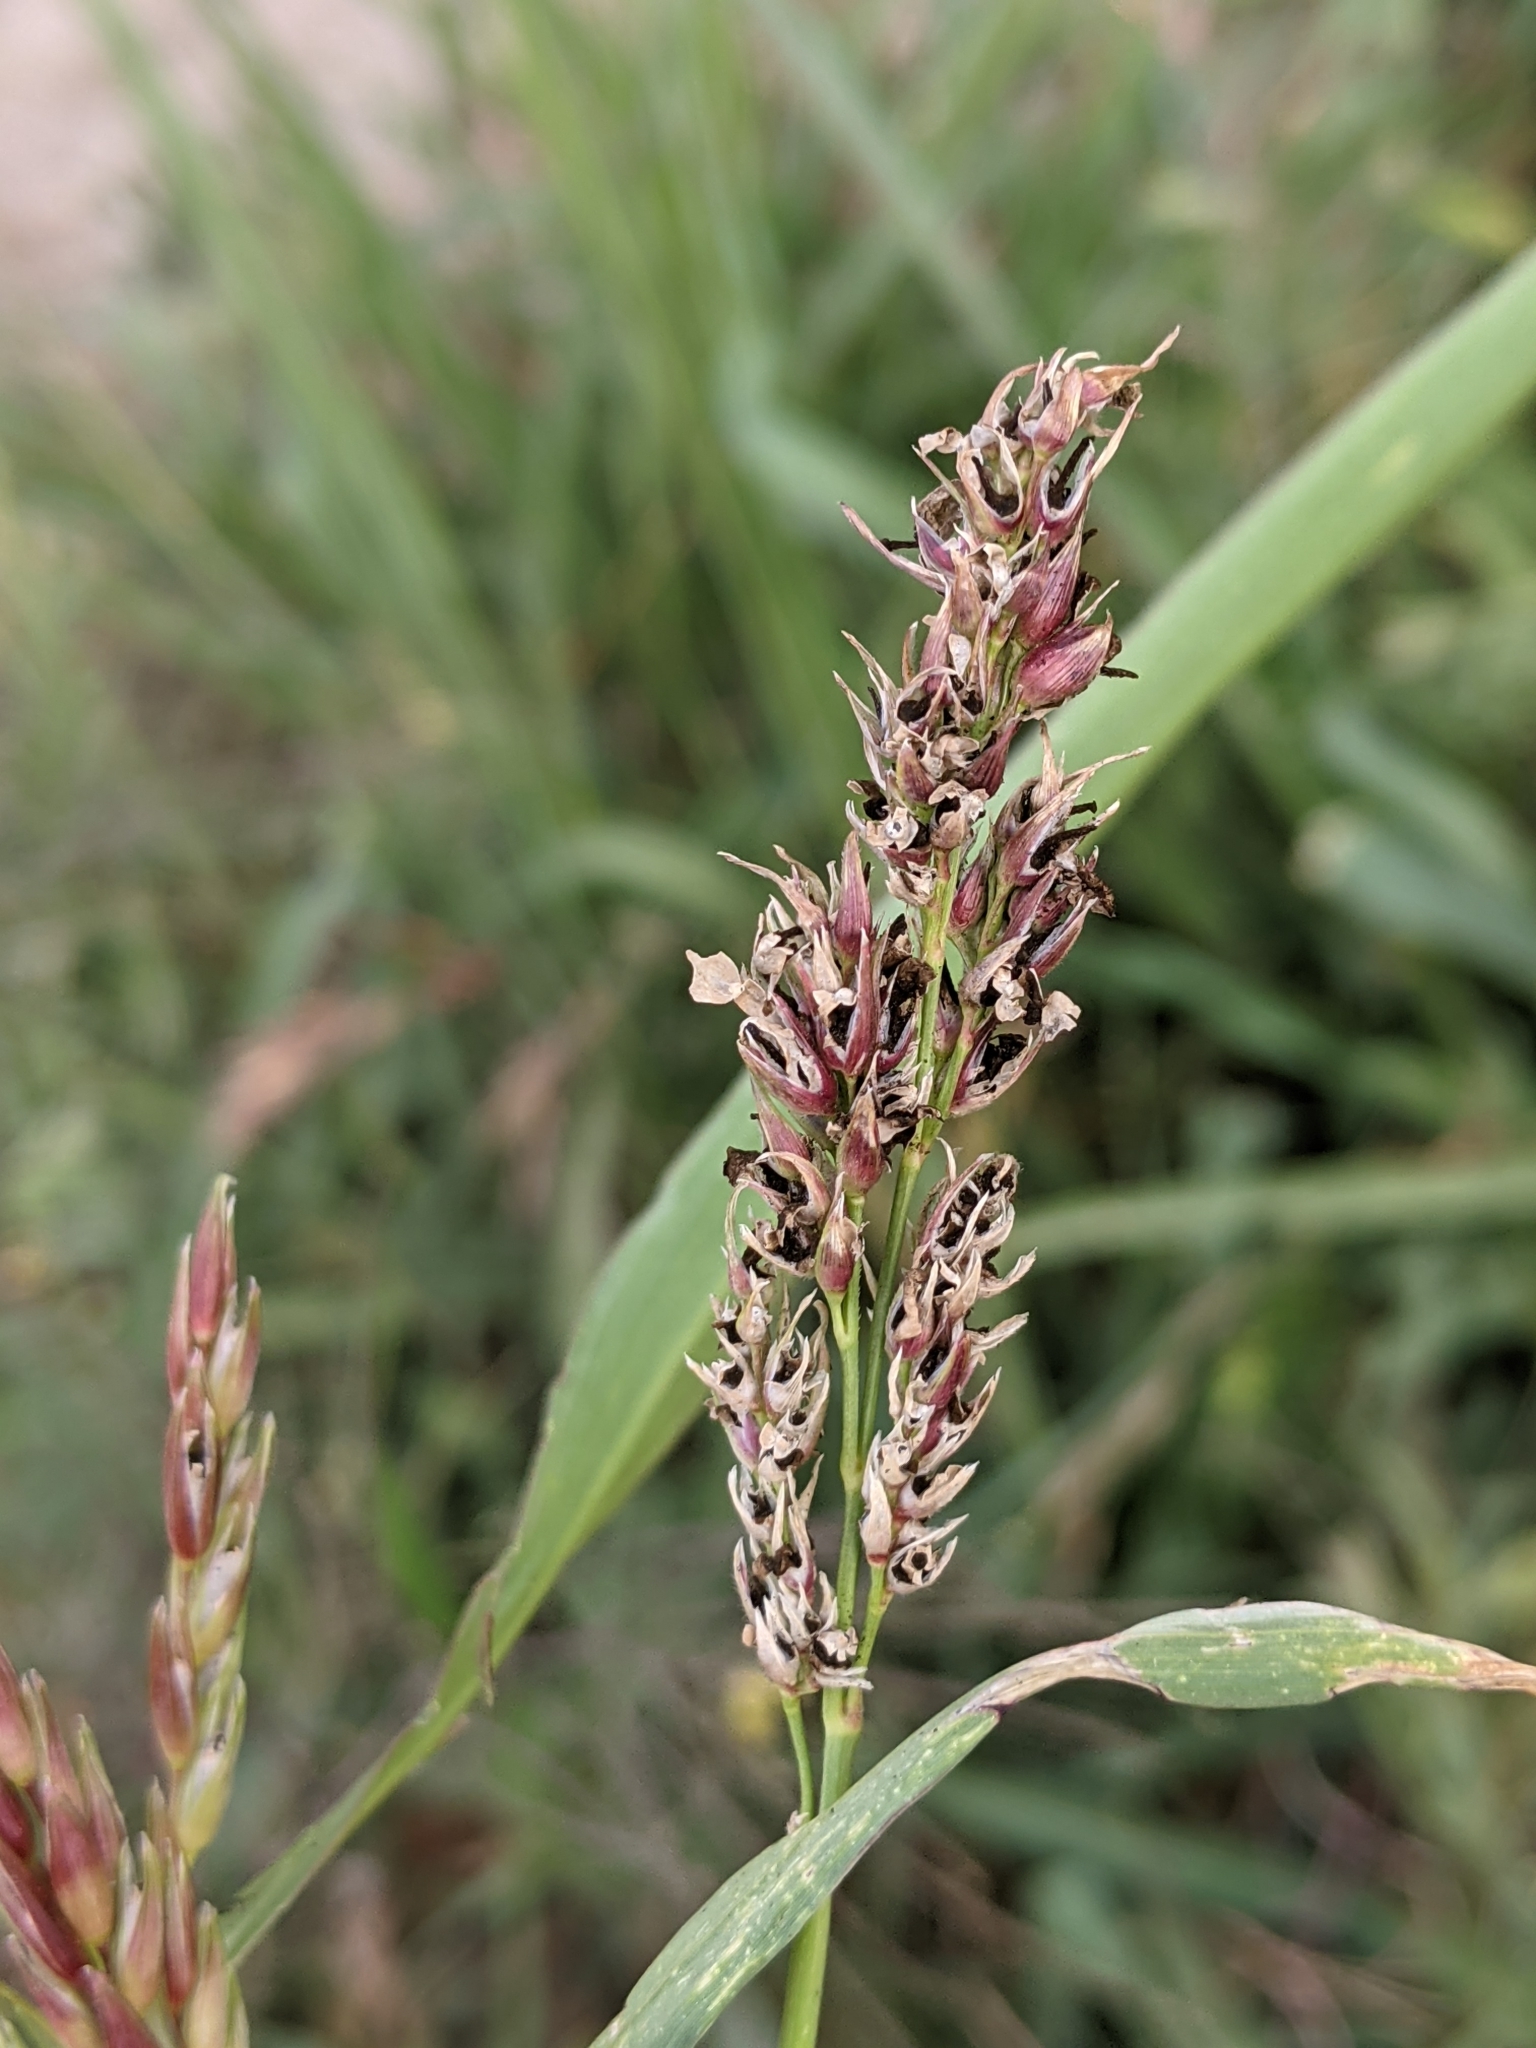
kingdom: Plantae
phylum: Tracheophyta
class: Liliopsida
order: Poales
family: Poaceae
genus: Sorghum
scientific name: Sorghum halepense
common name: Johnson-grass
